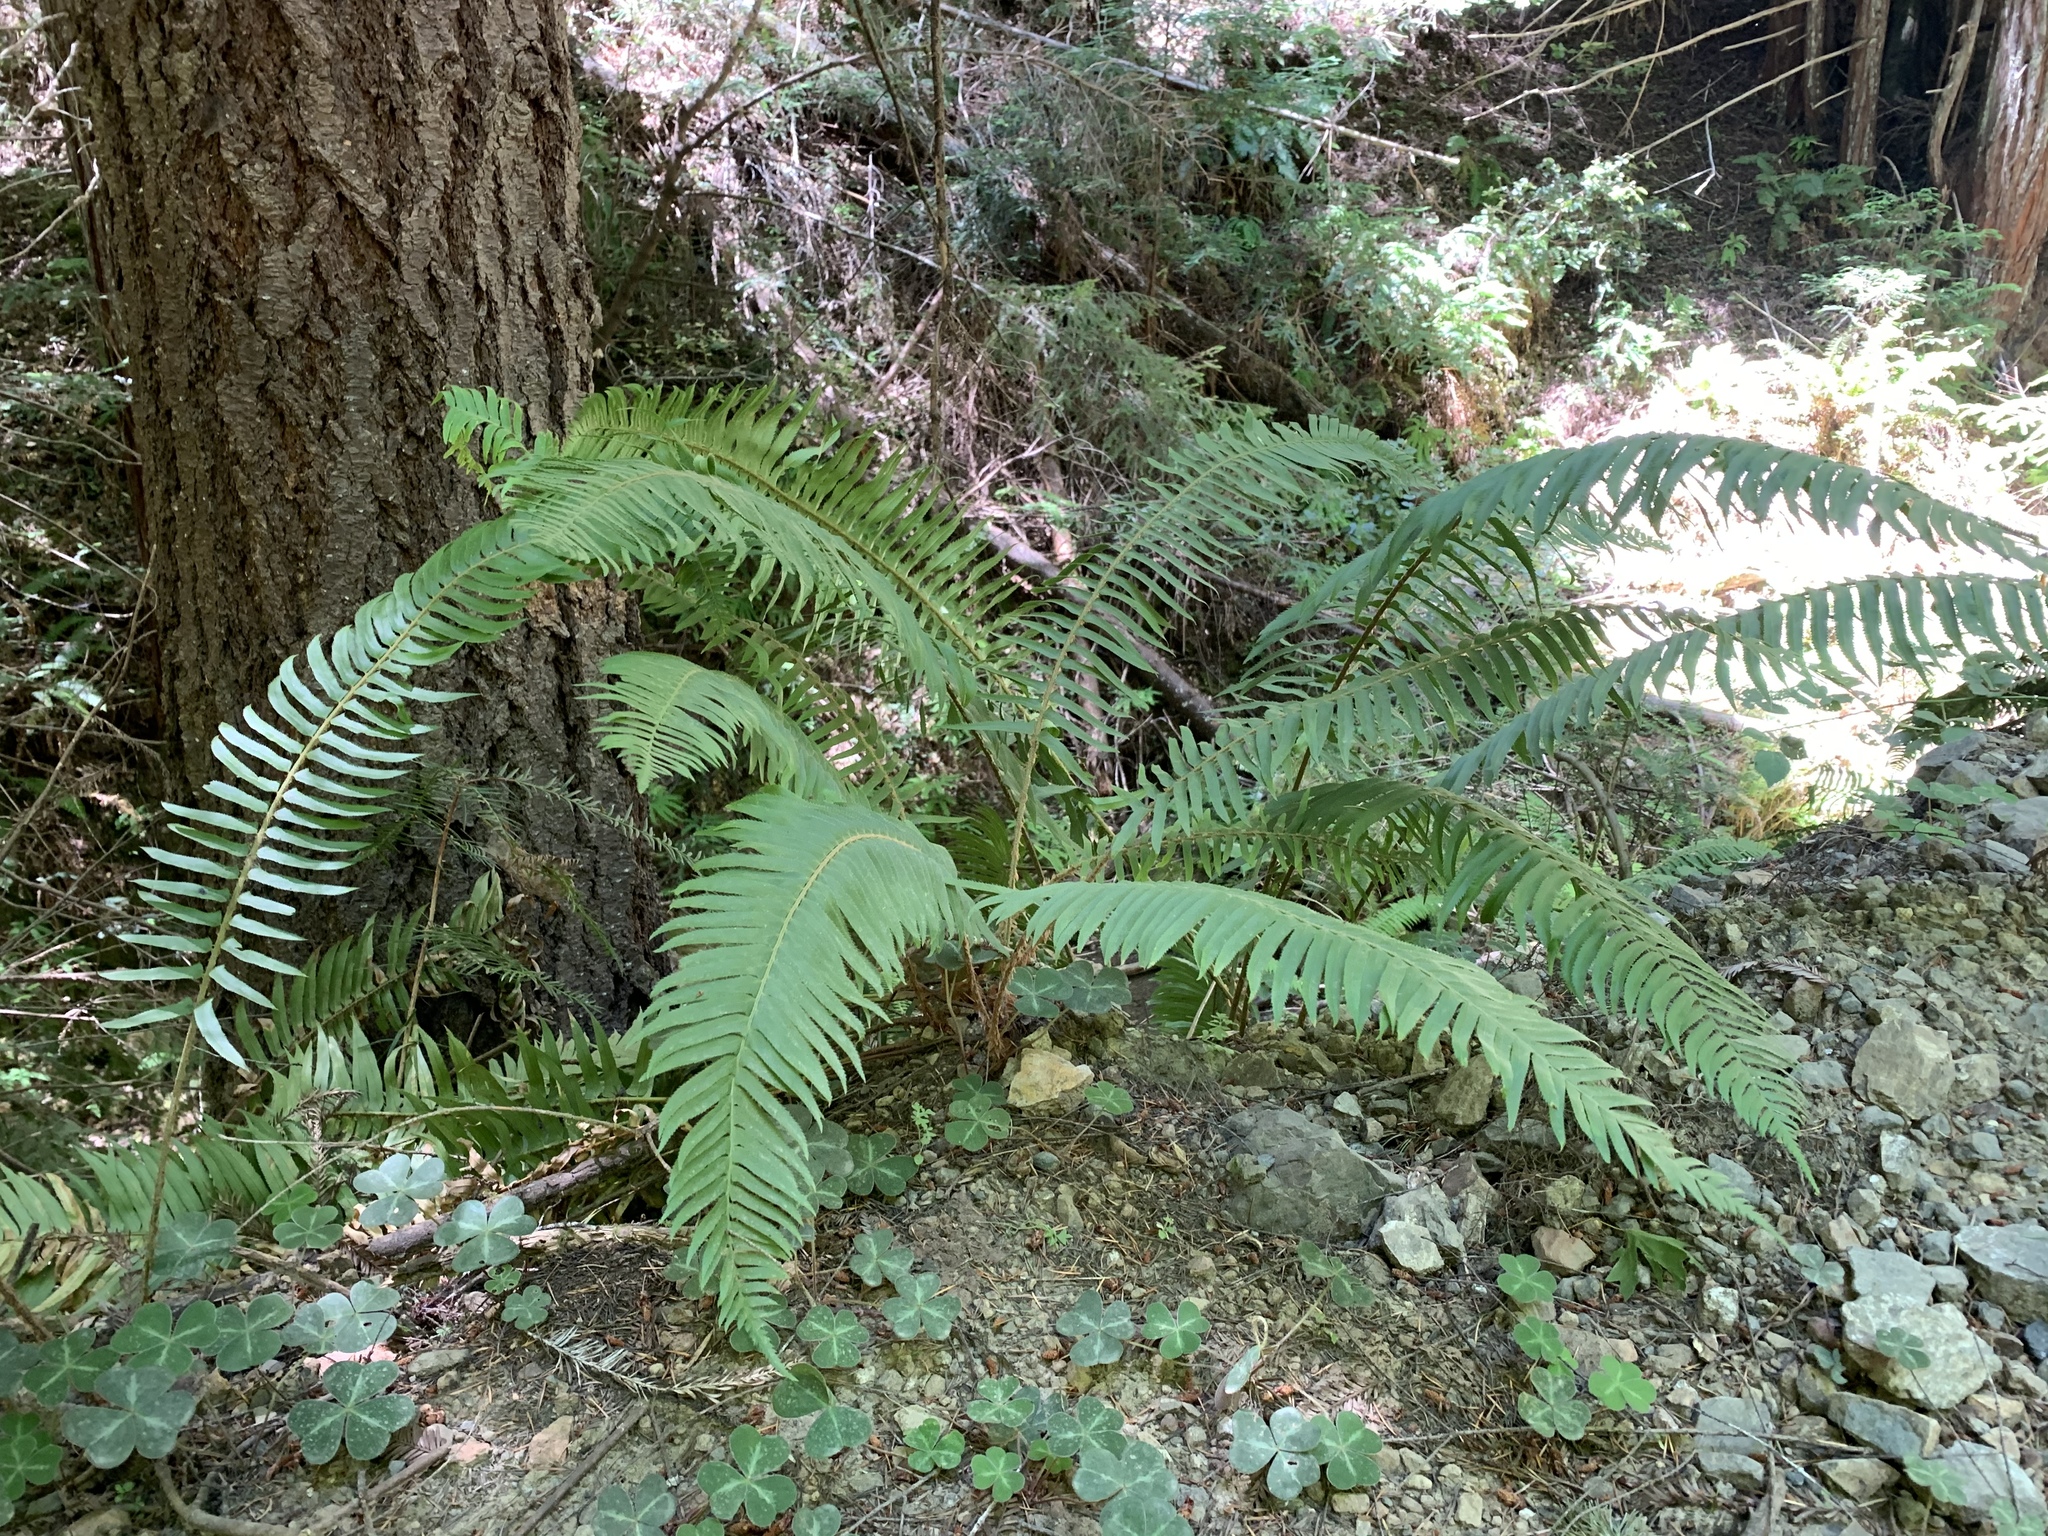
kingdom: Plantae
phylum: Tracheophyta
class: Polypodiopsida
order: Polypodiales
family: Dryopteridaceae
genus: Polystichum
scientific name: Polystichum munitum
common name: Western sword-fern
